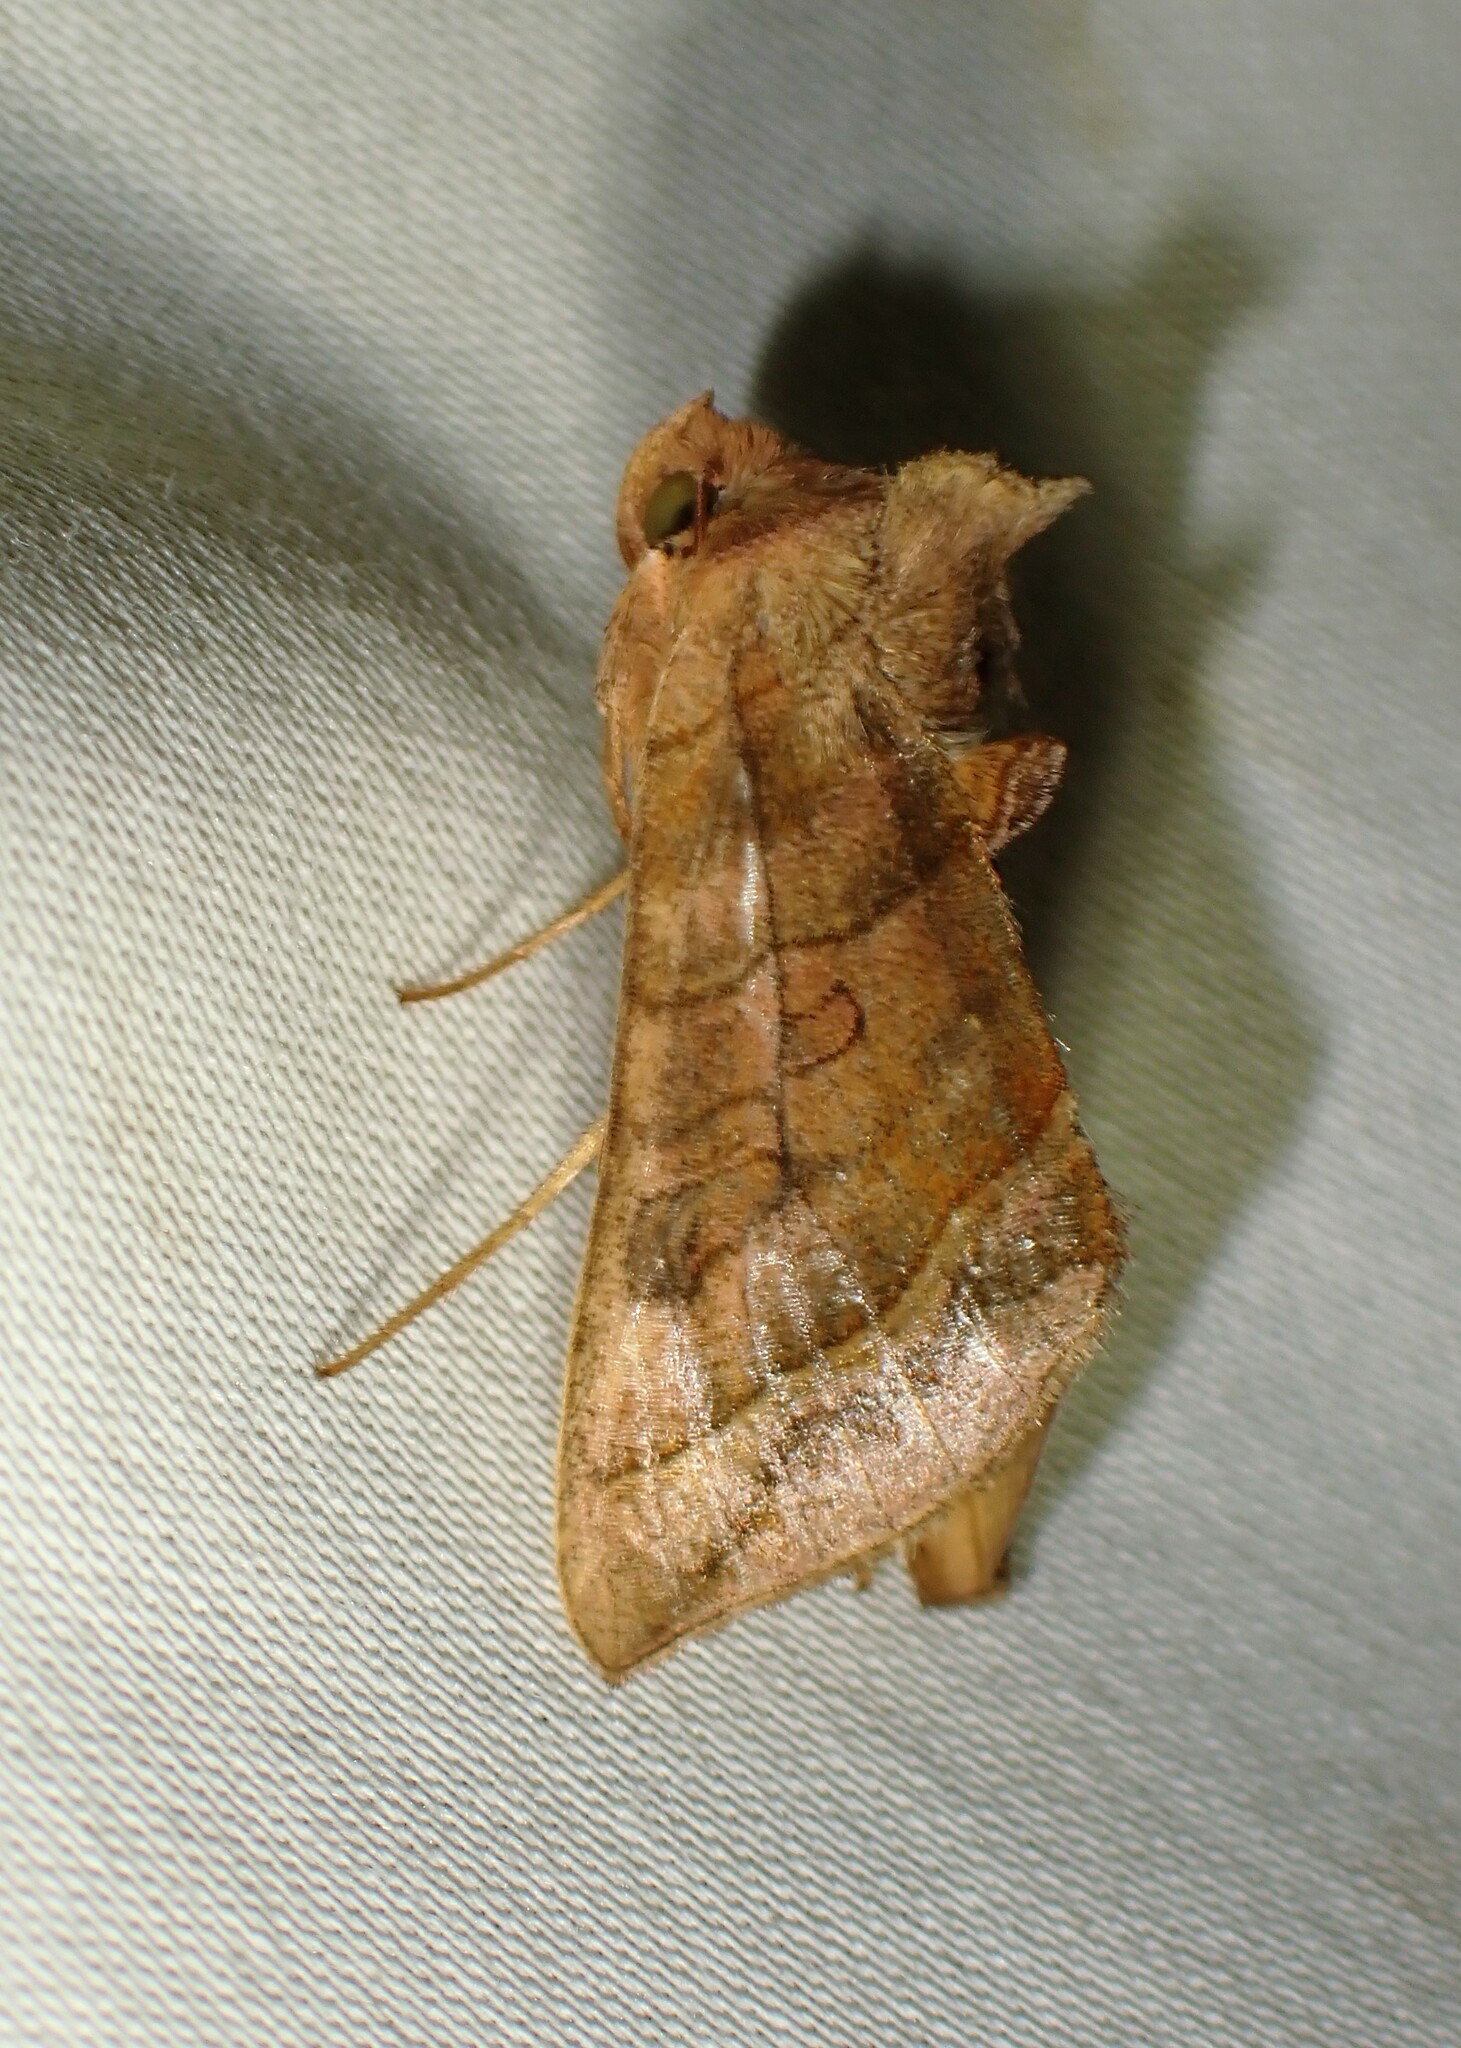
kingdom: Animalia
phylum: Arthropoda
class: Insecta
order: Lepidoptera
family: Noctuidae
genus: Diachrysia
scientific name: Diachrysia aereoides
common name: Dark-spotted looper moth
